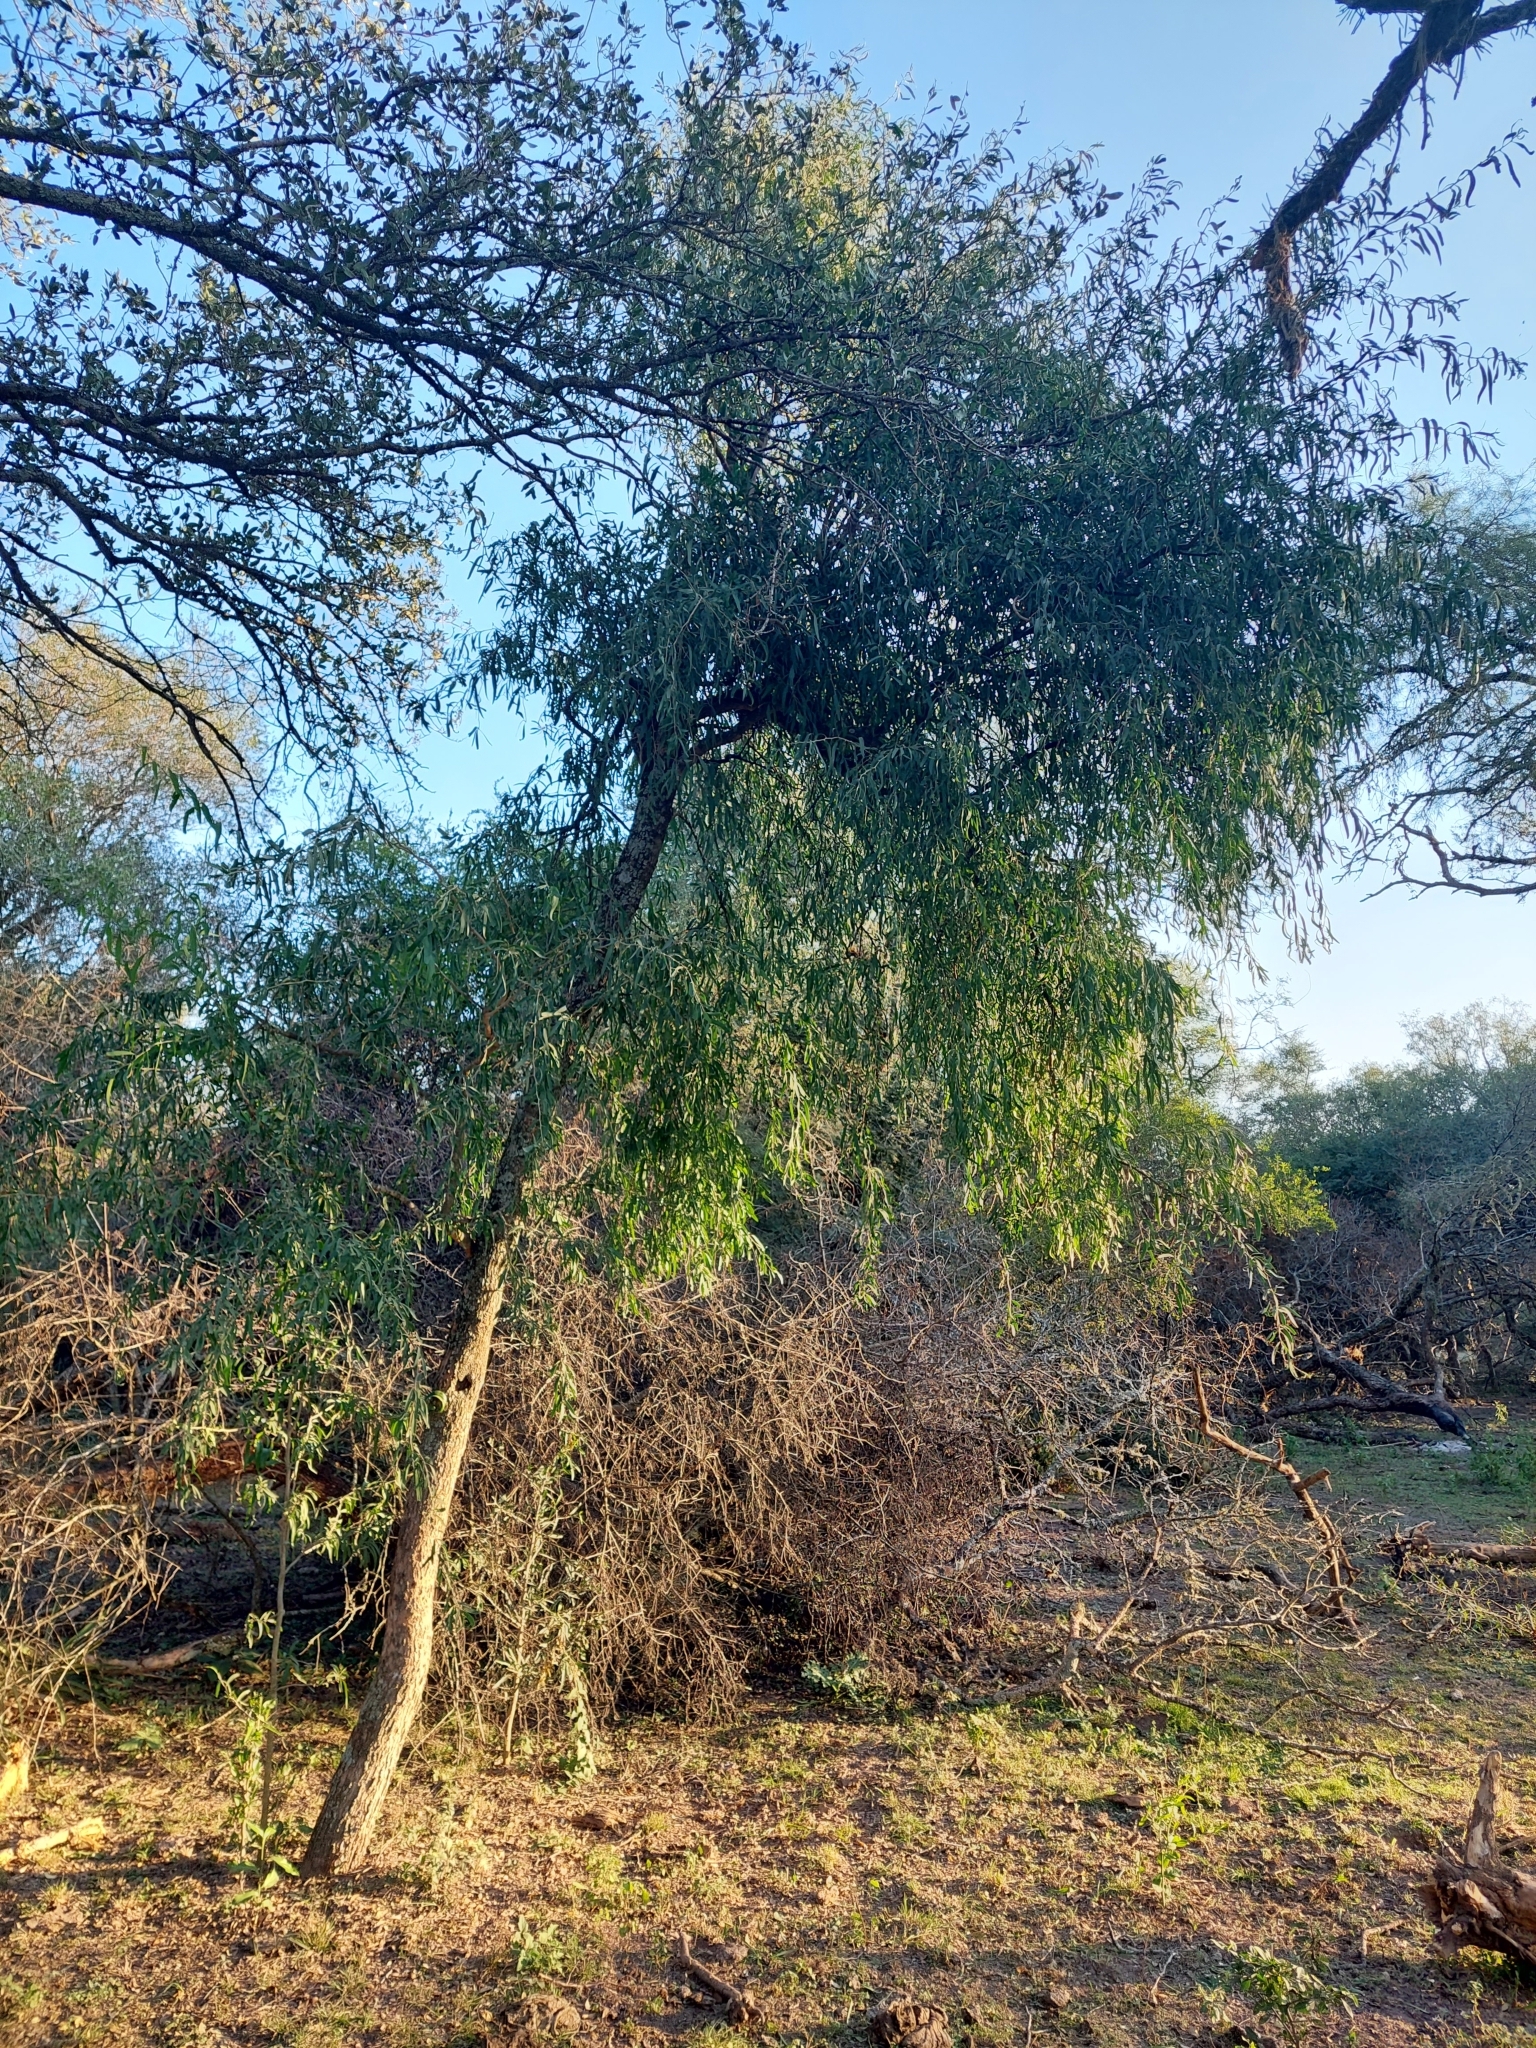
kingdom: Plantae
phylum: Tracheophyta
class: Magnoliopsida
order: Santalales
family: Cervantesiaceae
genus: Acanthosyris
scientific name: Acanthosyris falcata
